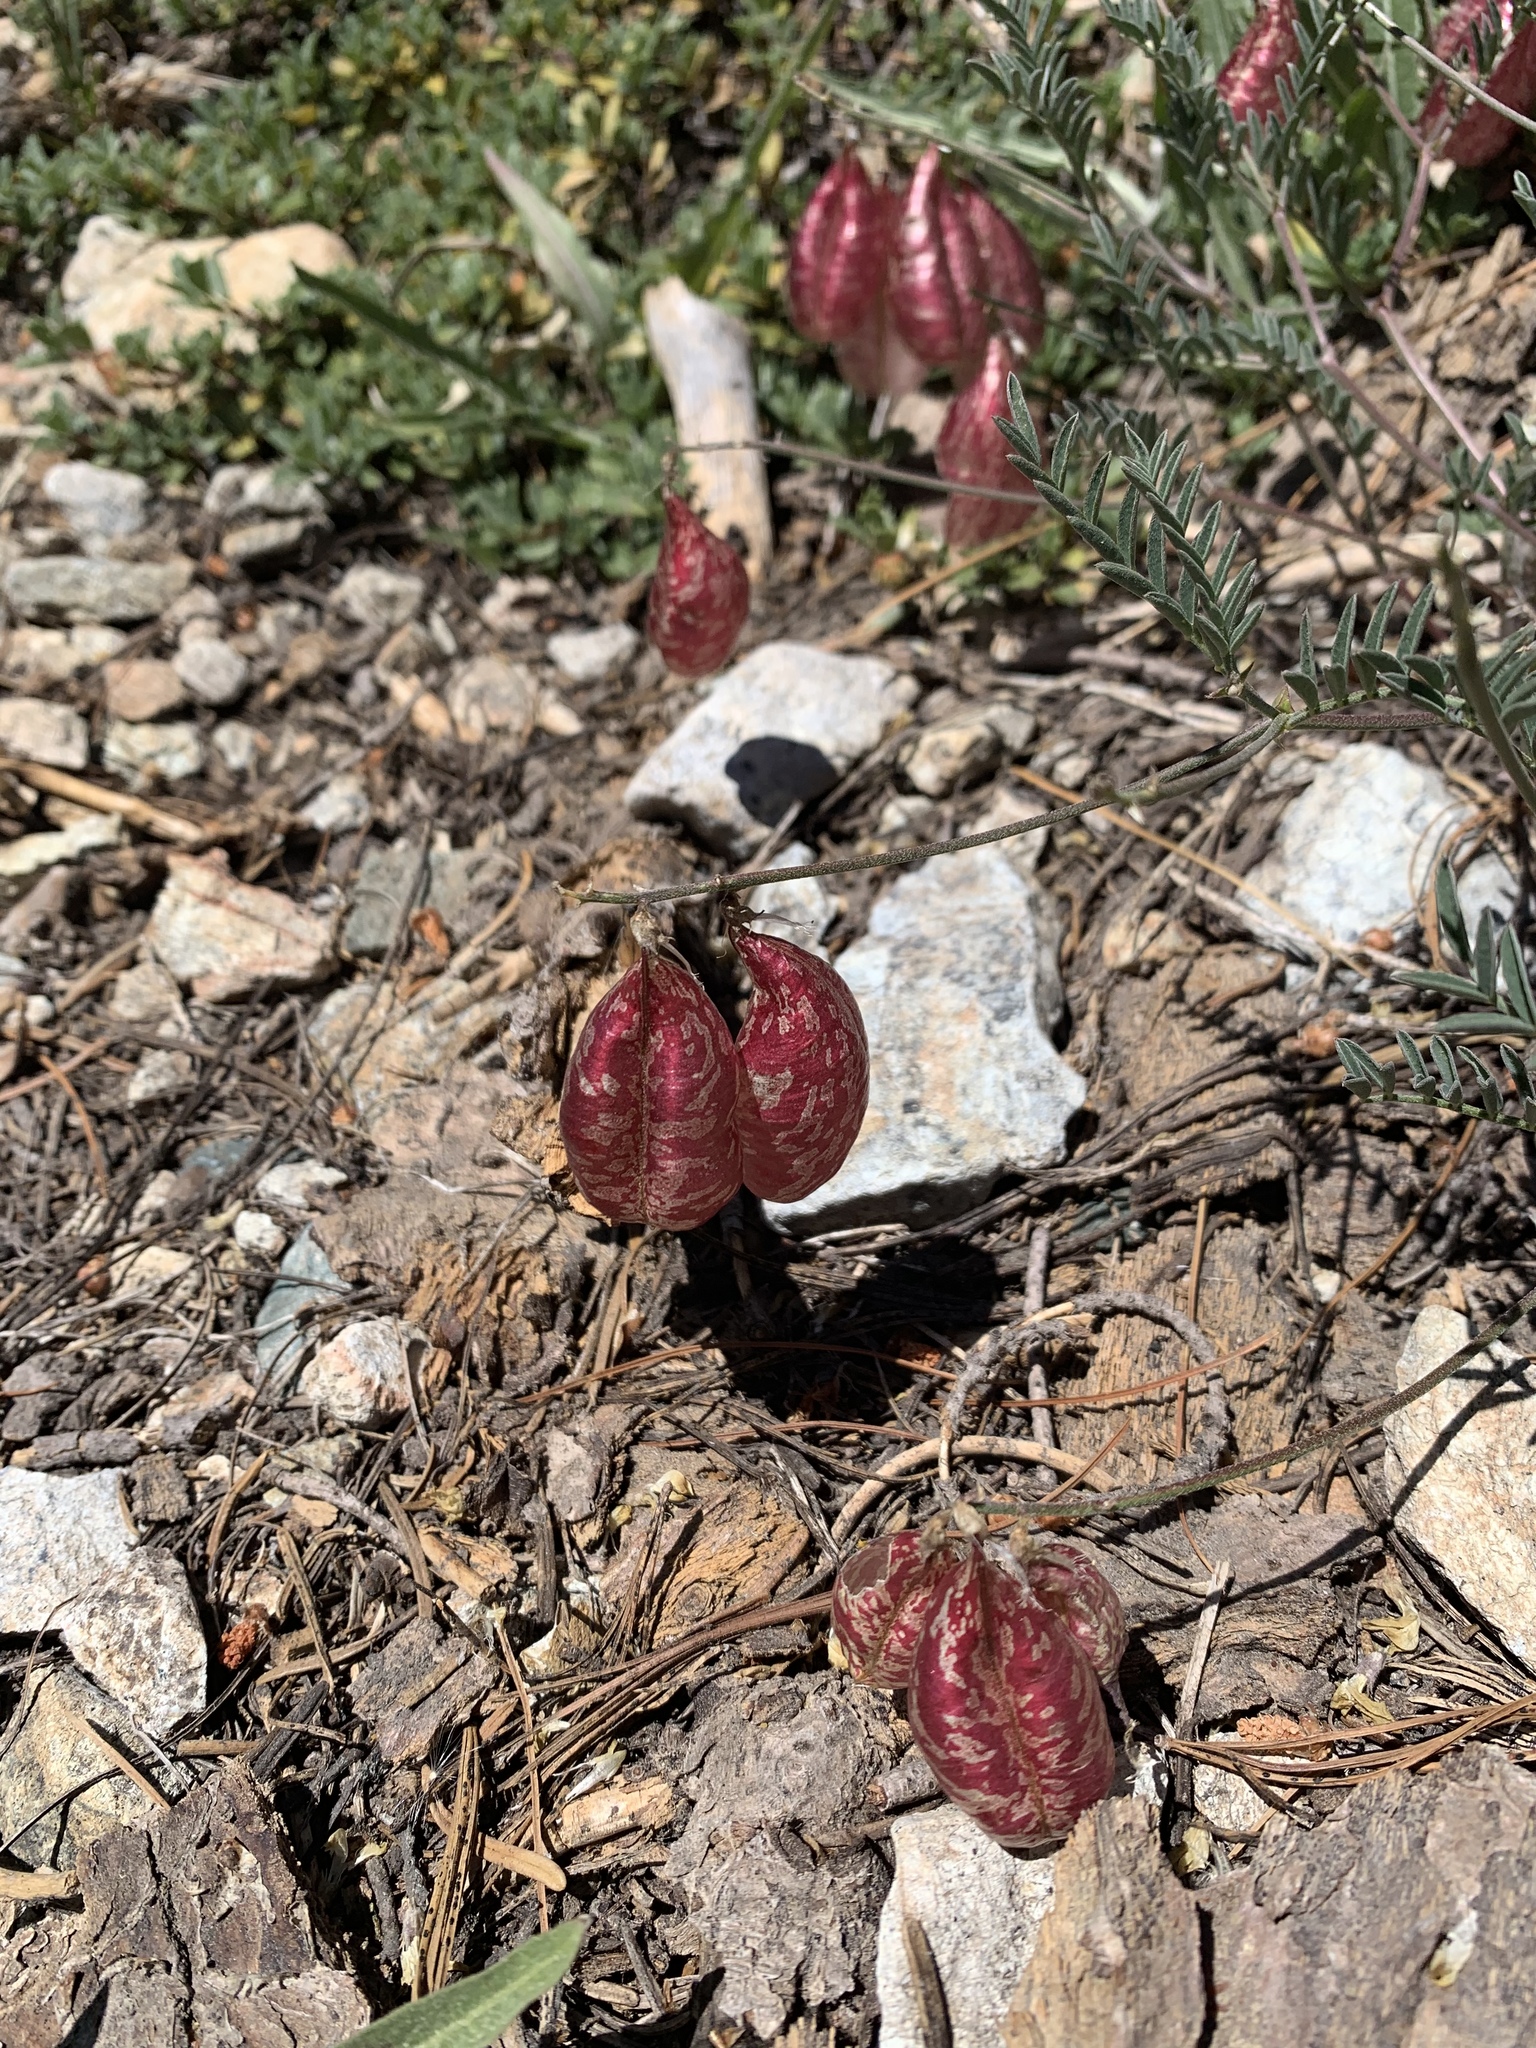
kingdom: Plantae
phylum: Tracheophyta
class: Magnoliopsida
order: Fabales
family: Fabaceae
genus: Astragalus
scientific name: Astragalus whitneyi
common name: Balloonpod milkvetch
